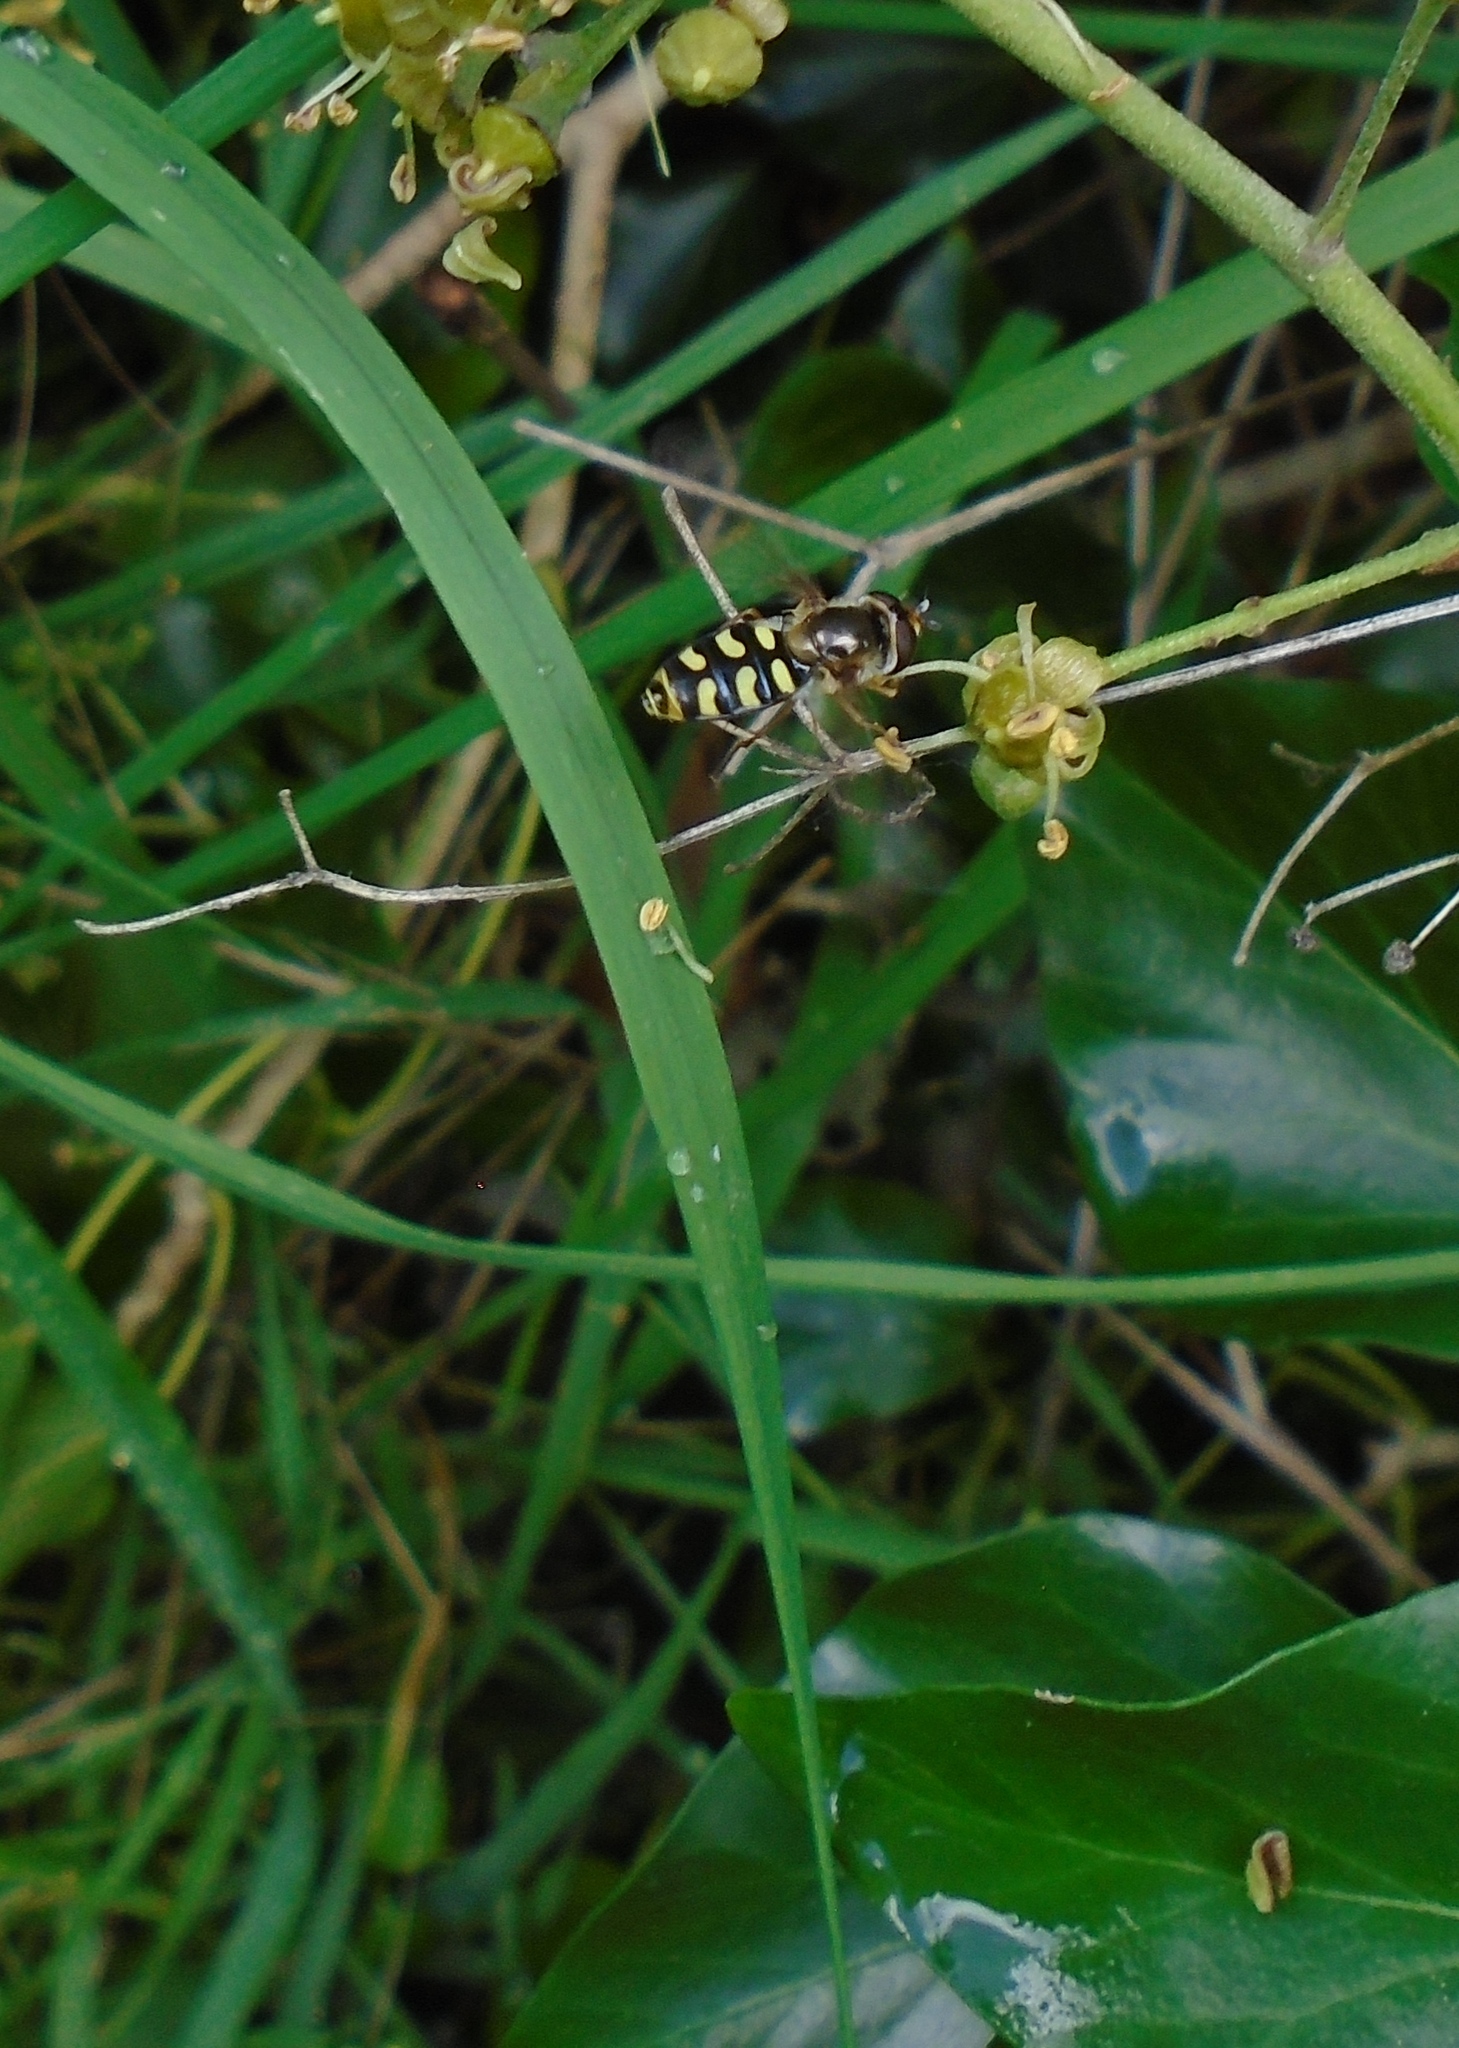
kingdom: Animalia
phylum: Arthropoda
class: Insecta
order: Diptera
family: Syrphidae
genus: Eupeodes
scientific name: Eupeodes luniger
